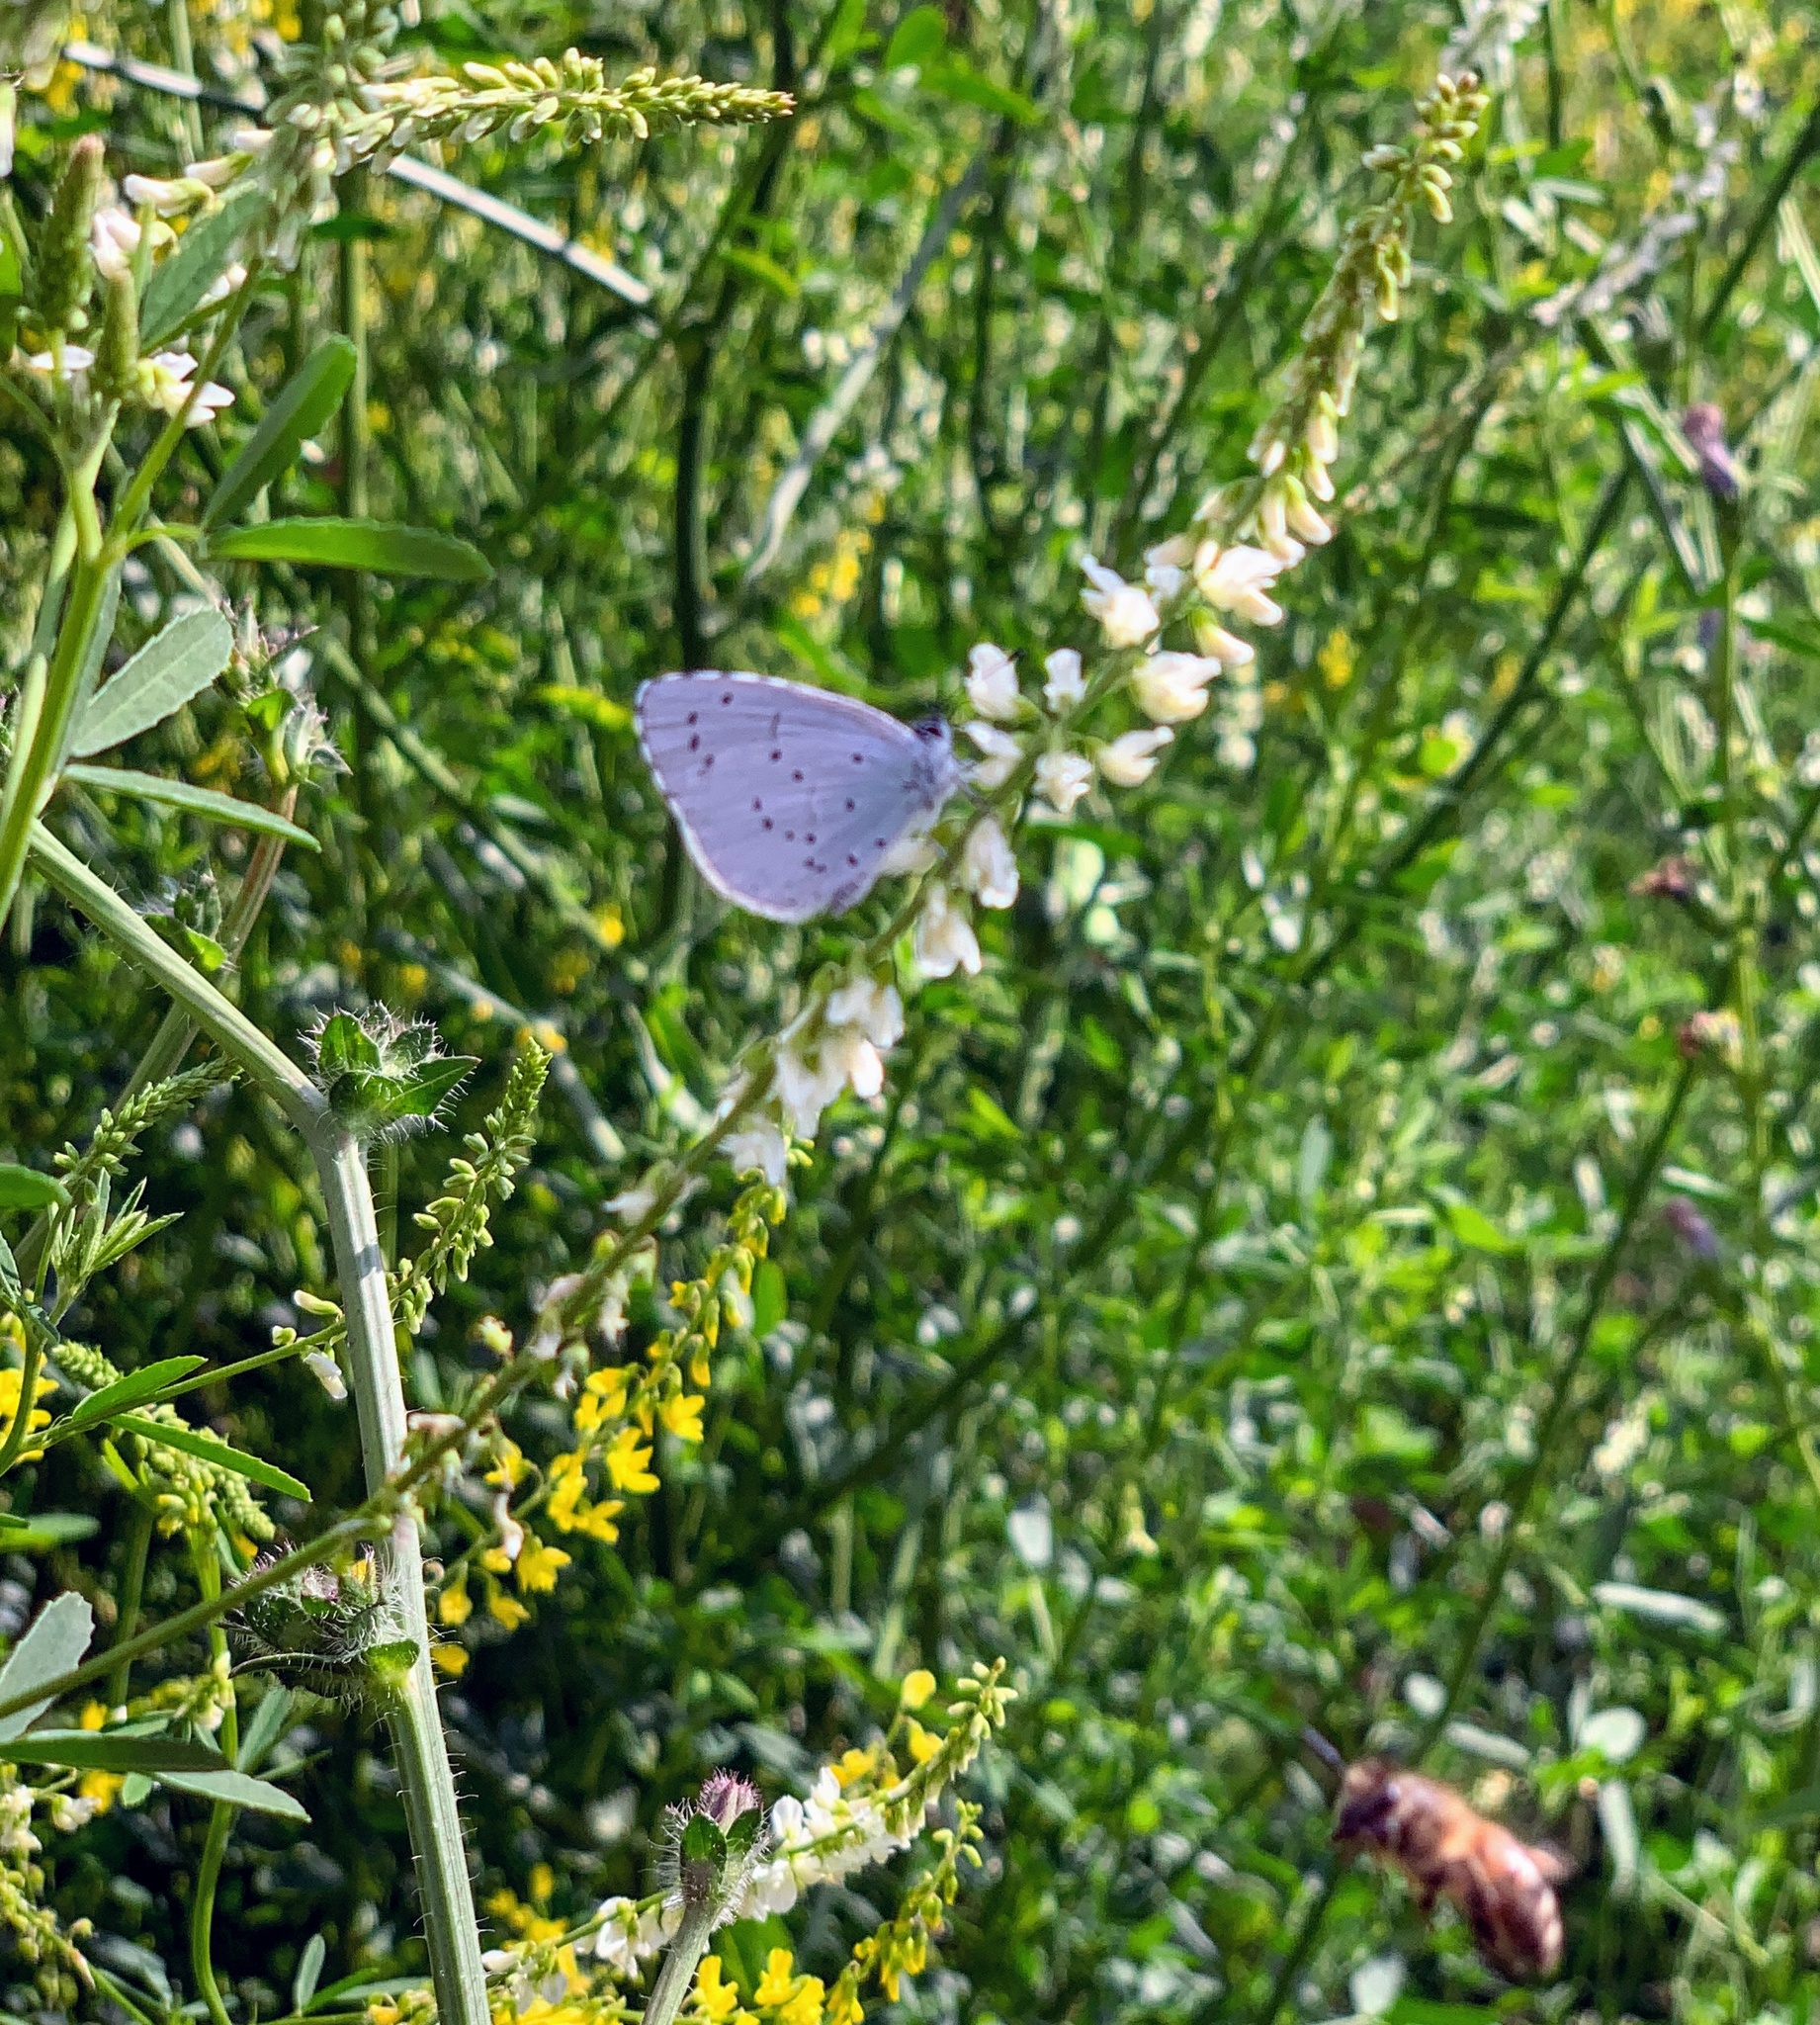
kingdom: Animalia
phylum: Arthropoda
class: Insecta
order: Lepidoptera
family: Lycaenidae
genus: Celastrina
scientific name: Celastrina argiolus
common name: Holly blue
